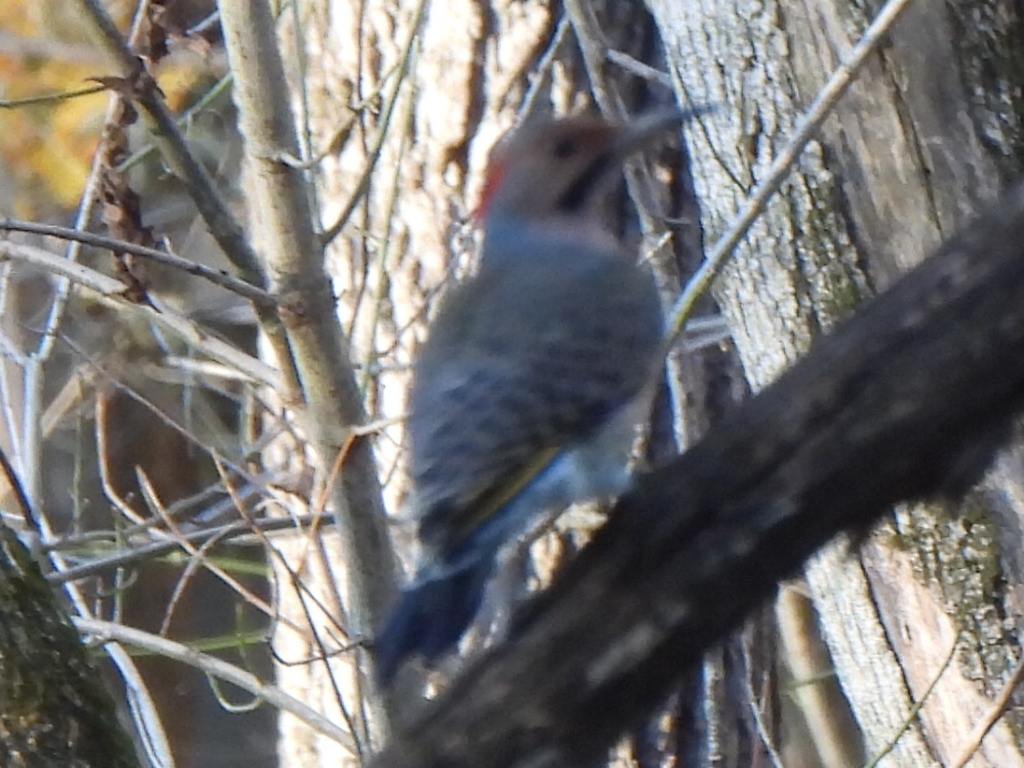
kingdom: Animalia
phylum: Chordata
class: Aves
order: Piciformes
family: Picidae
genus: Colaptes
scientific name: Colaptes auratus
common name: Northern flicker
